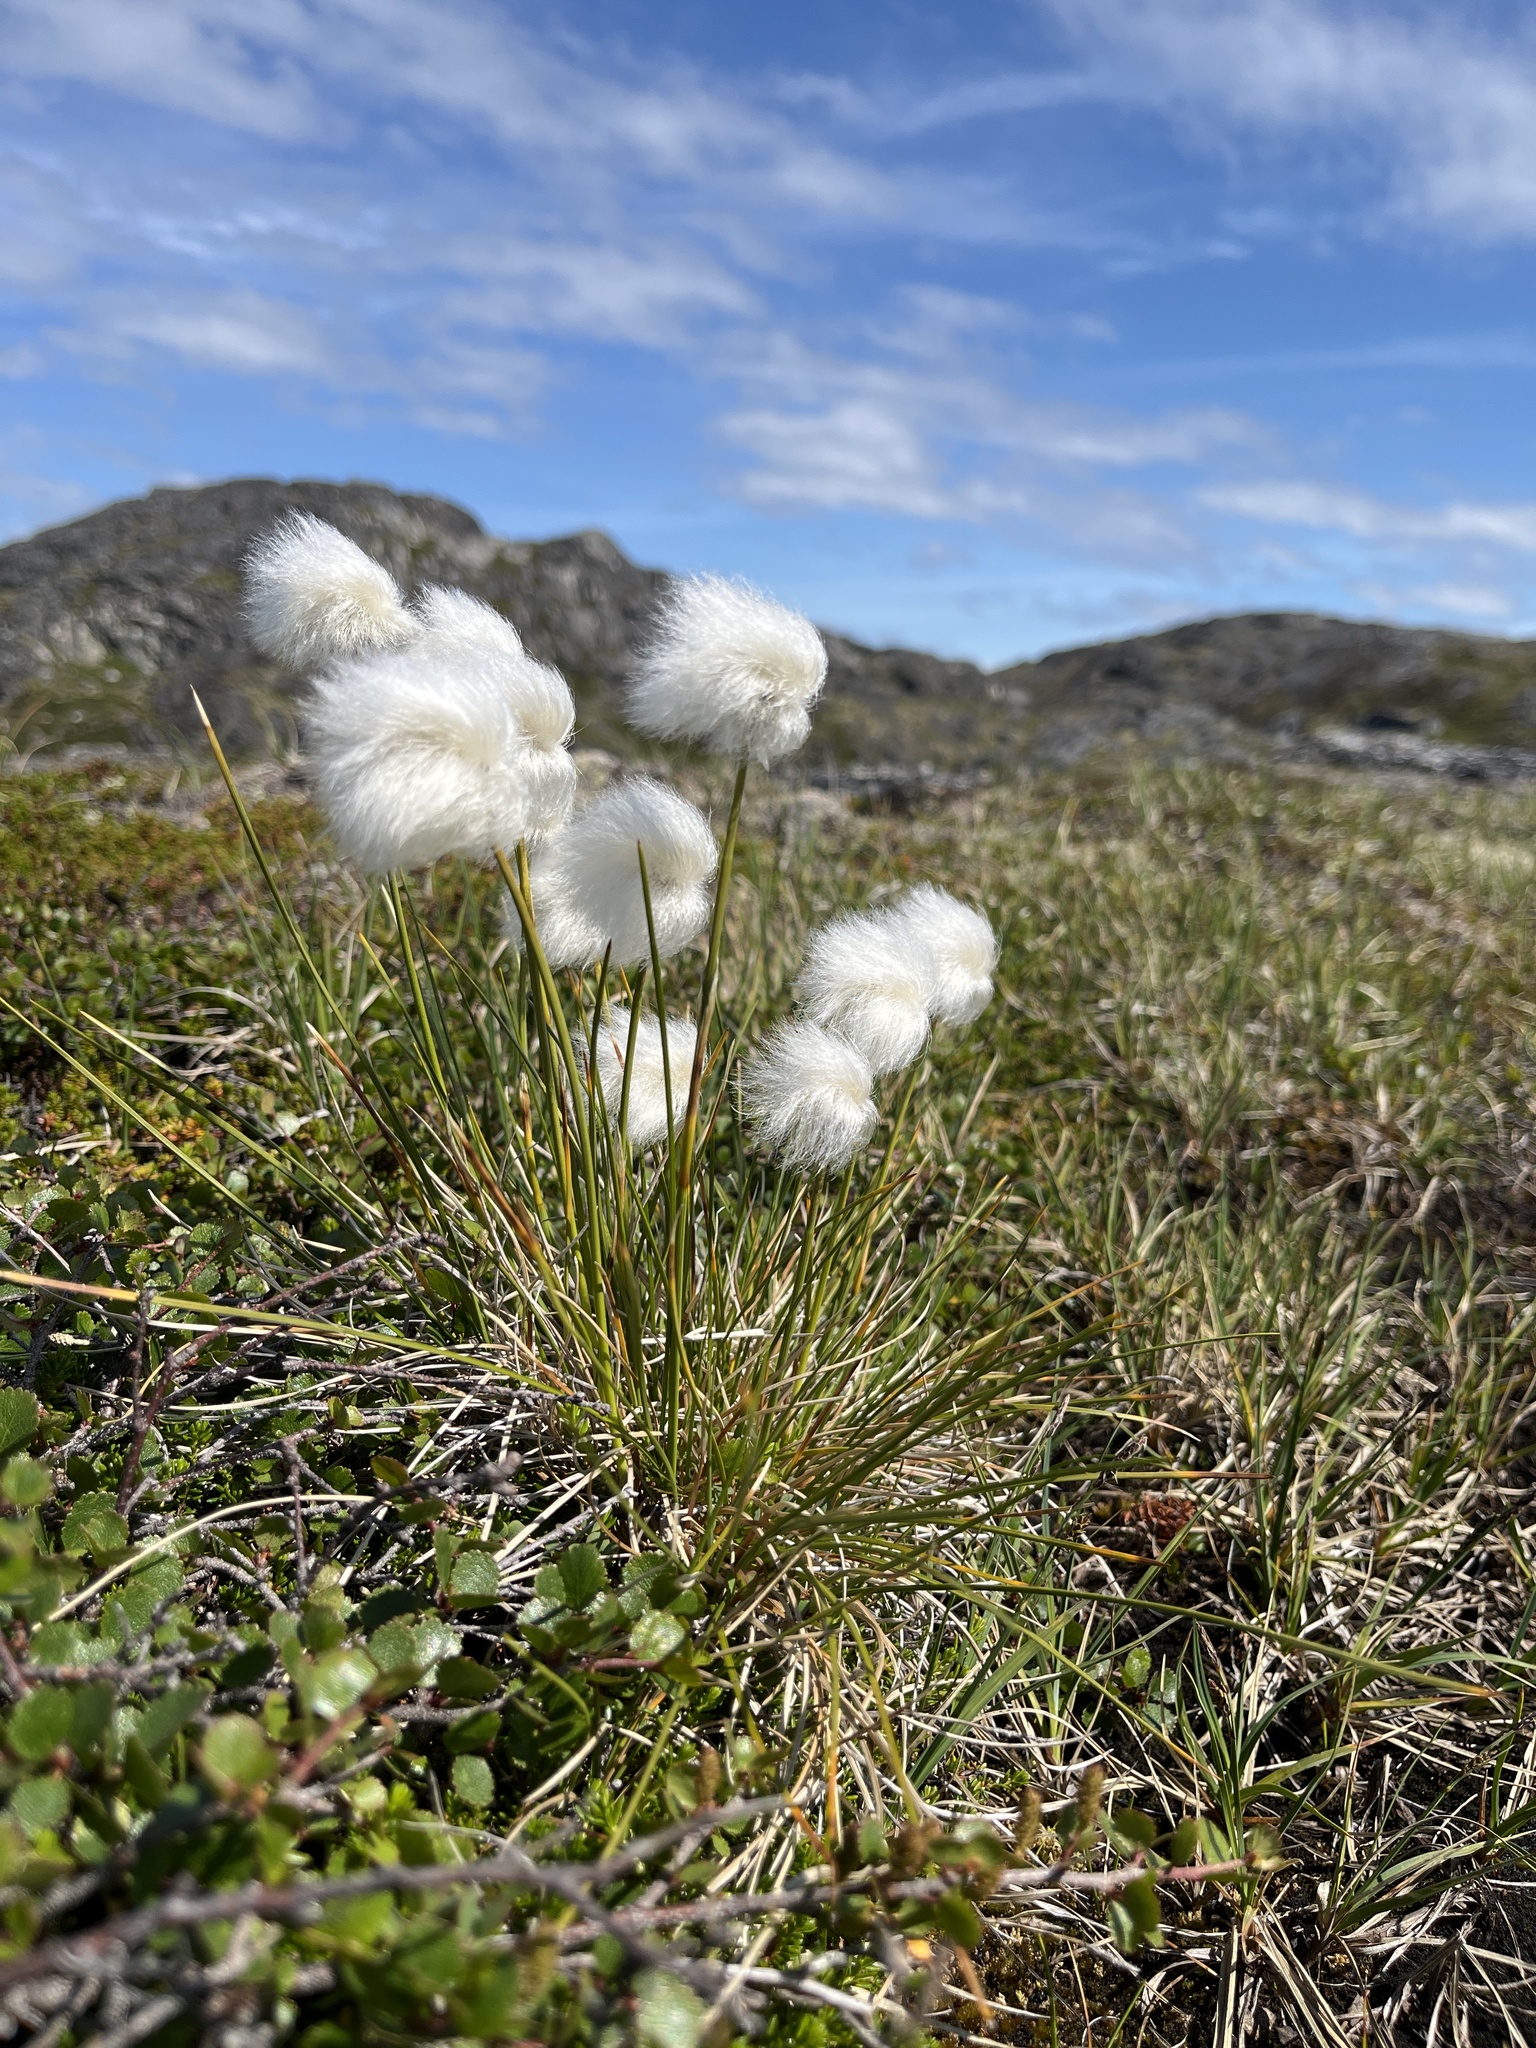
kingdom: Plantae
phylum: Tracheophyta
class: Liliopsida
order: Poales
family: Cyperaceae
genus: Eriophorum
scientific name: Eriophorum vaginatum
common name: Hare's-tail cottongrass
